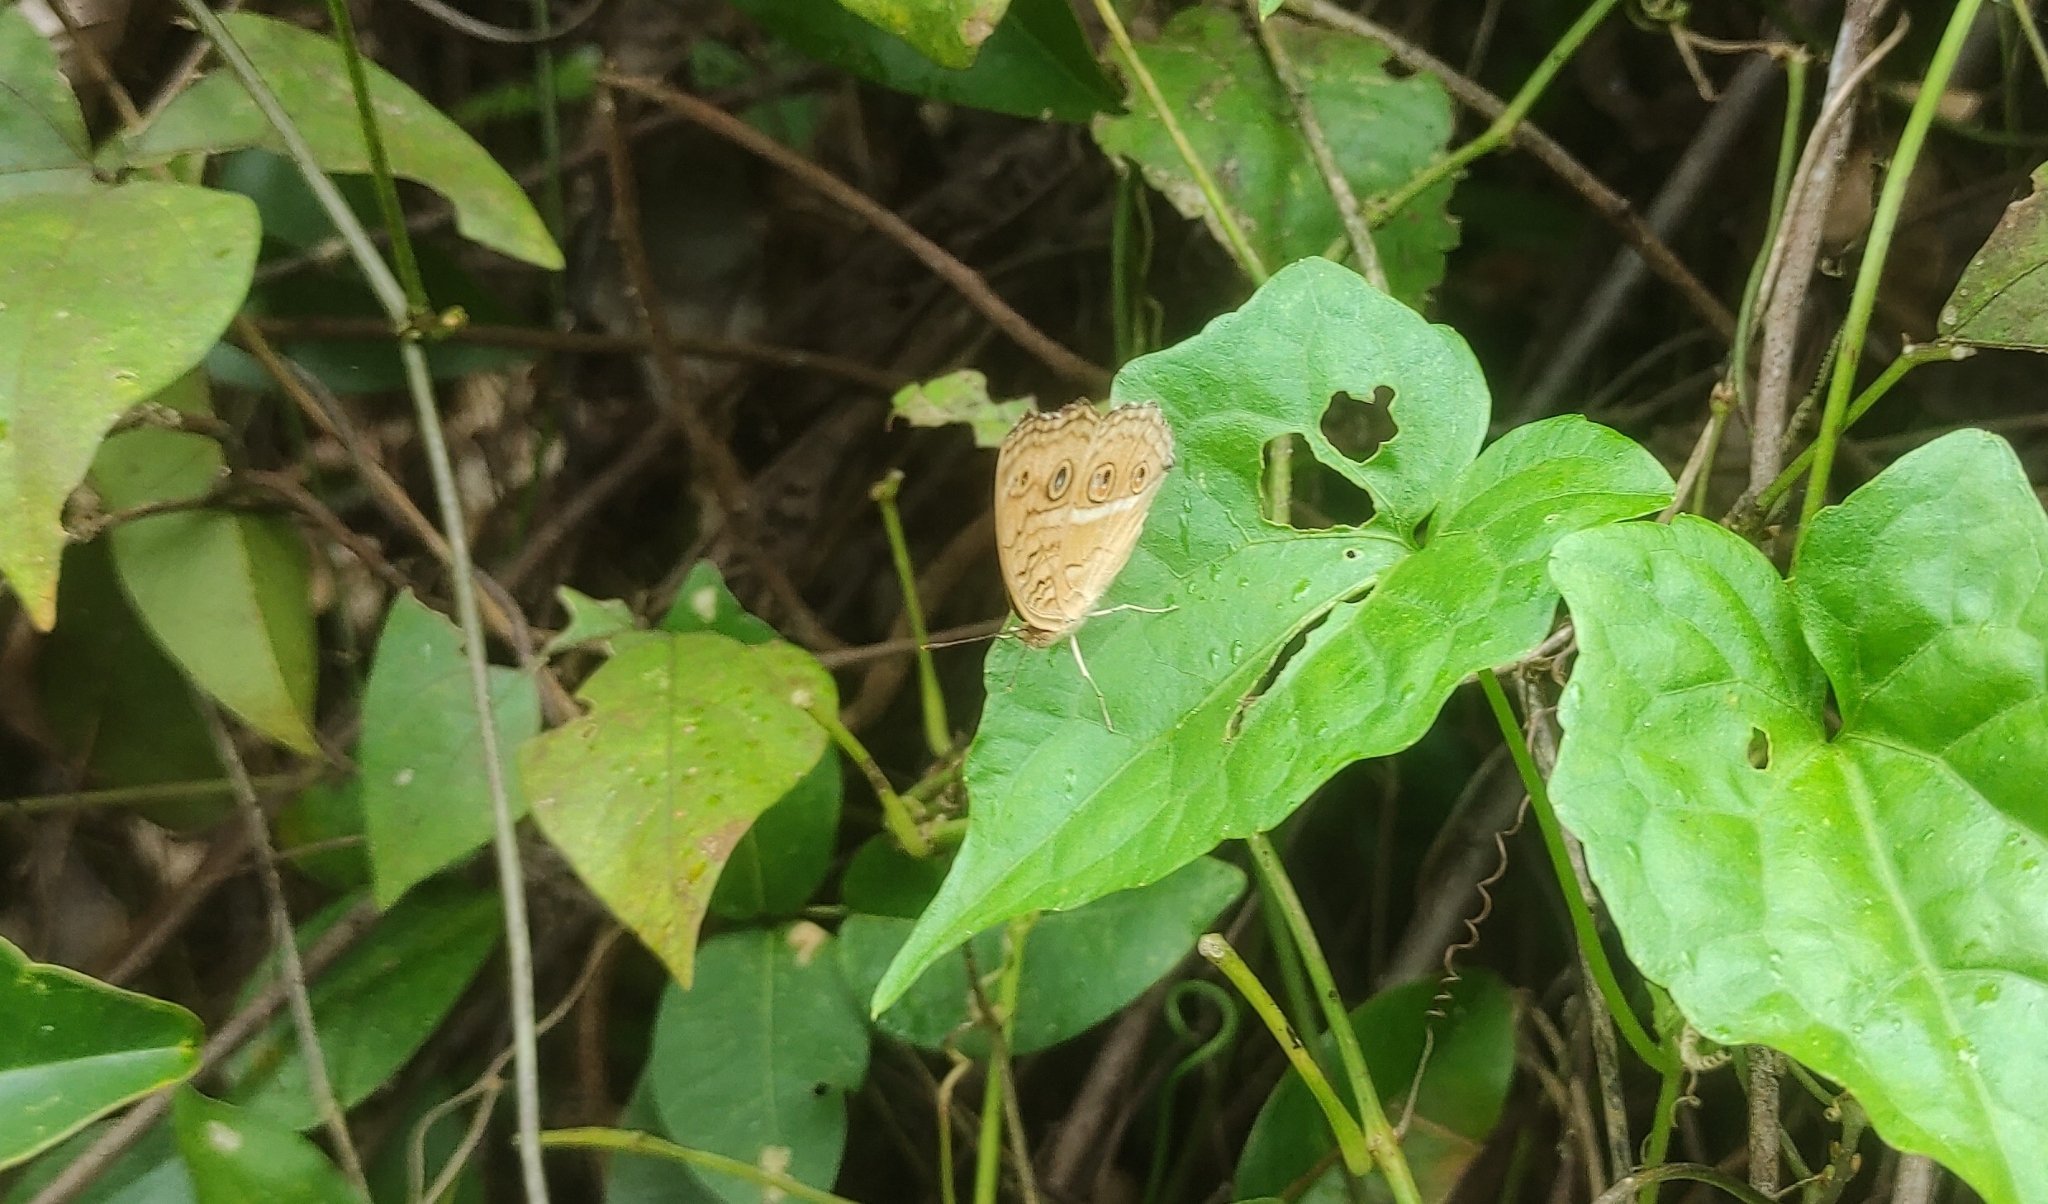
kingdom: Animalia
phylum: Arthropoda
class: Insecta
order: Lepidoptera
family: Nymphalidae
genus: Junonia
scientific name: Junonia almana
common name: Peacock pansy
